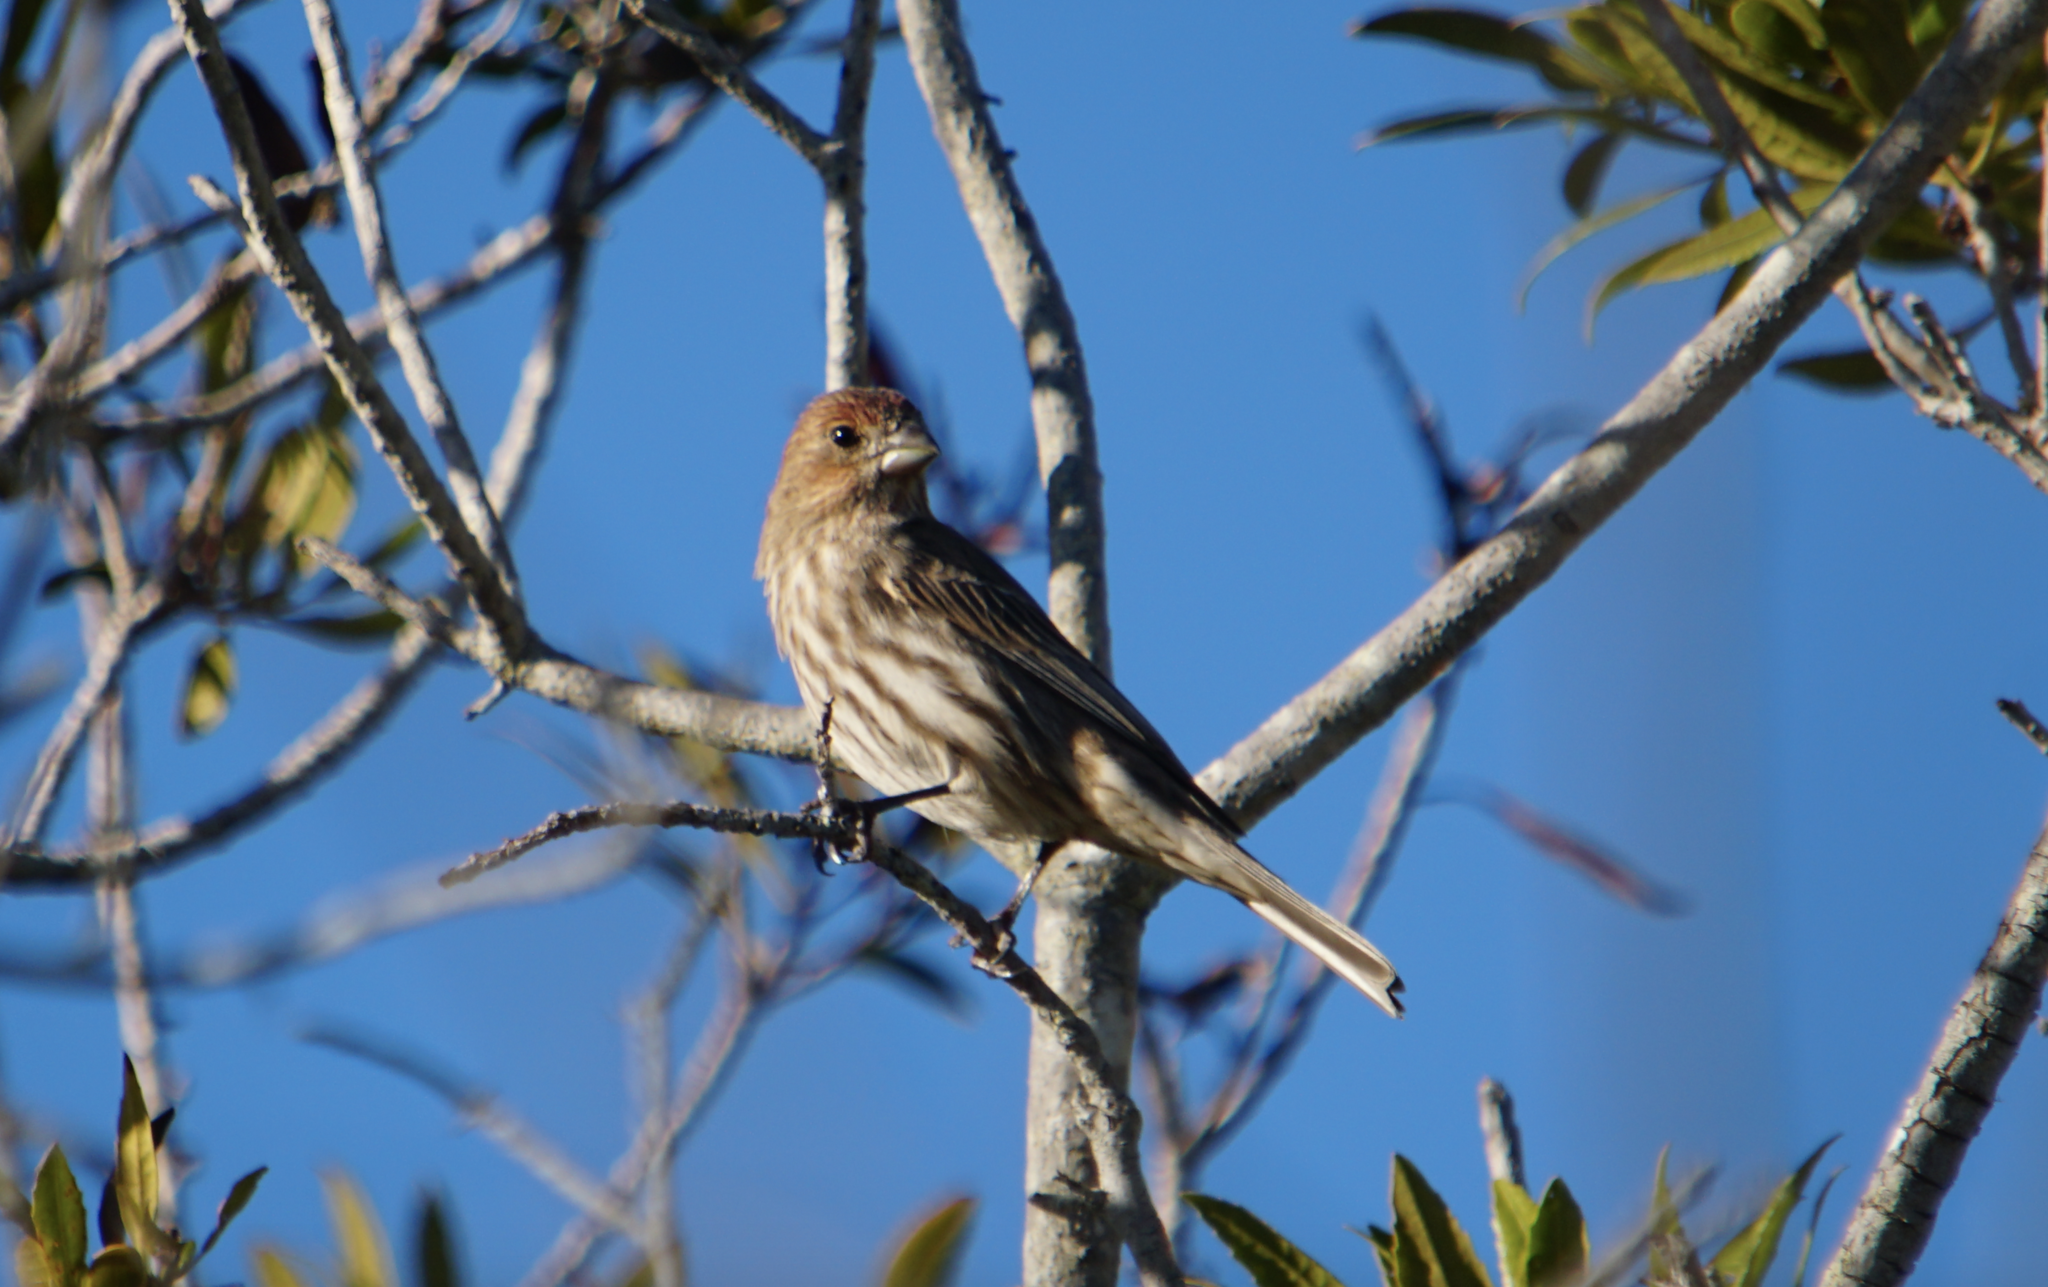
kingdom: Animalia
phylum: Chordata
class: Aves
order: Passeriformes
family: Fringillidae
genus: Haemorhous
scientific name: Haemorhous mexicanus
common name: House finch
